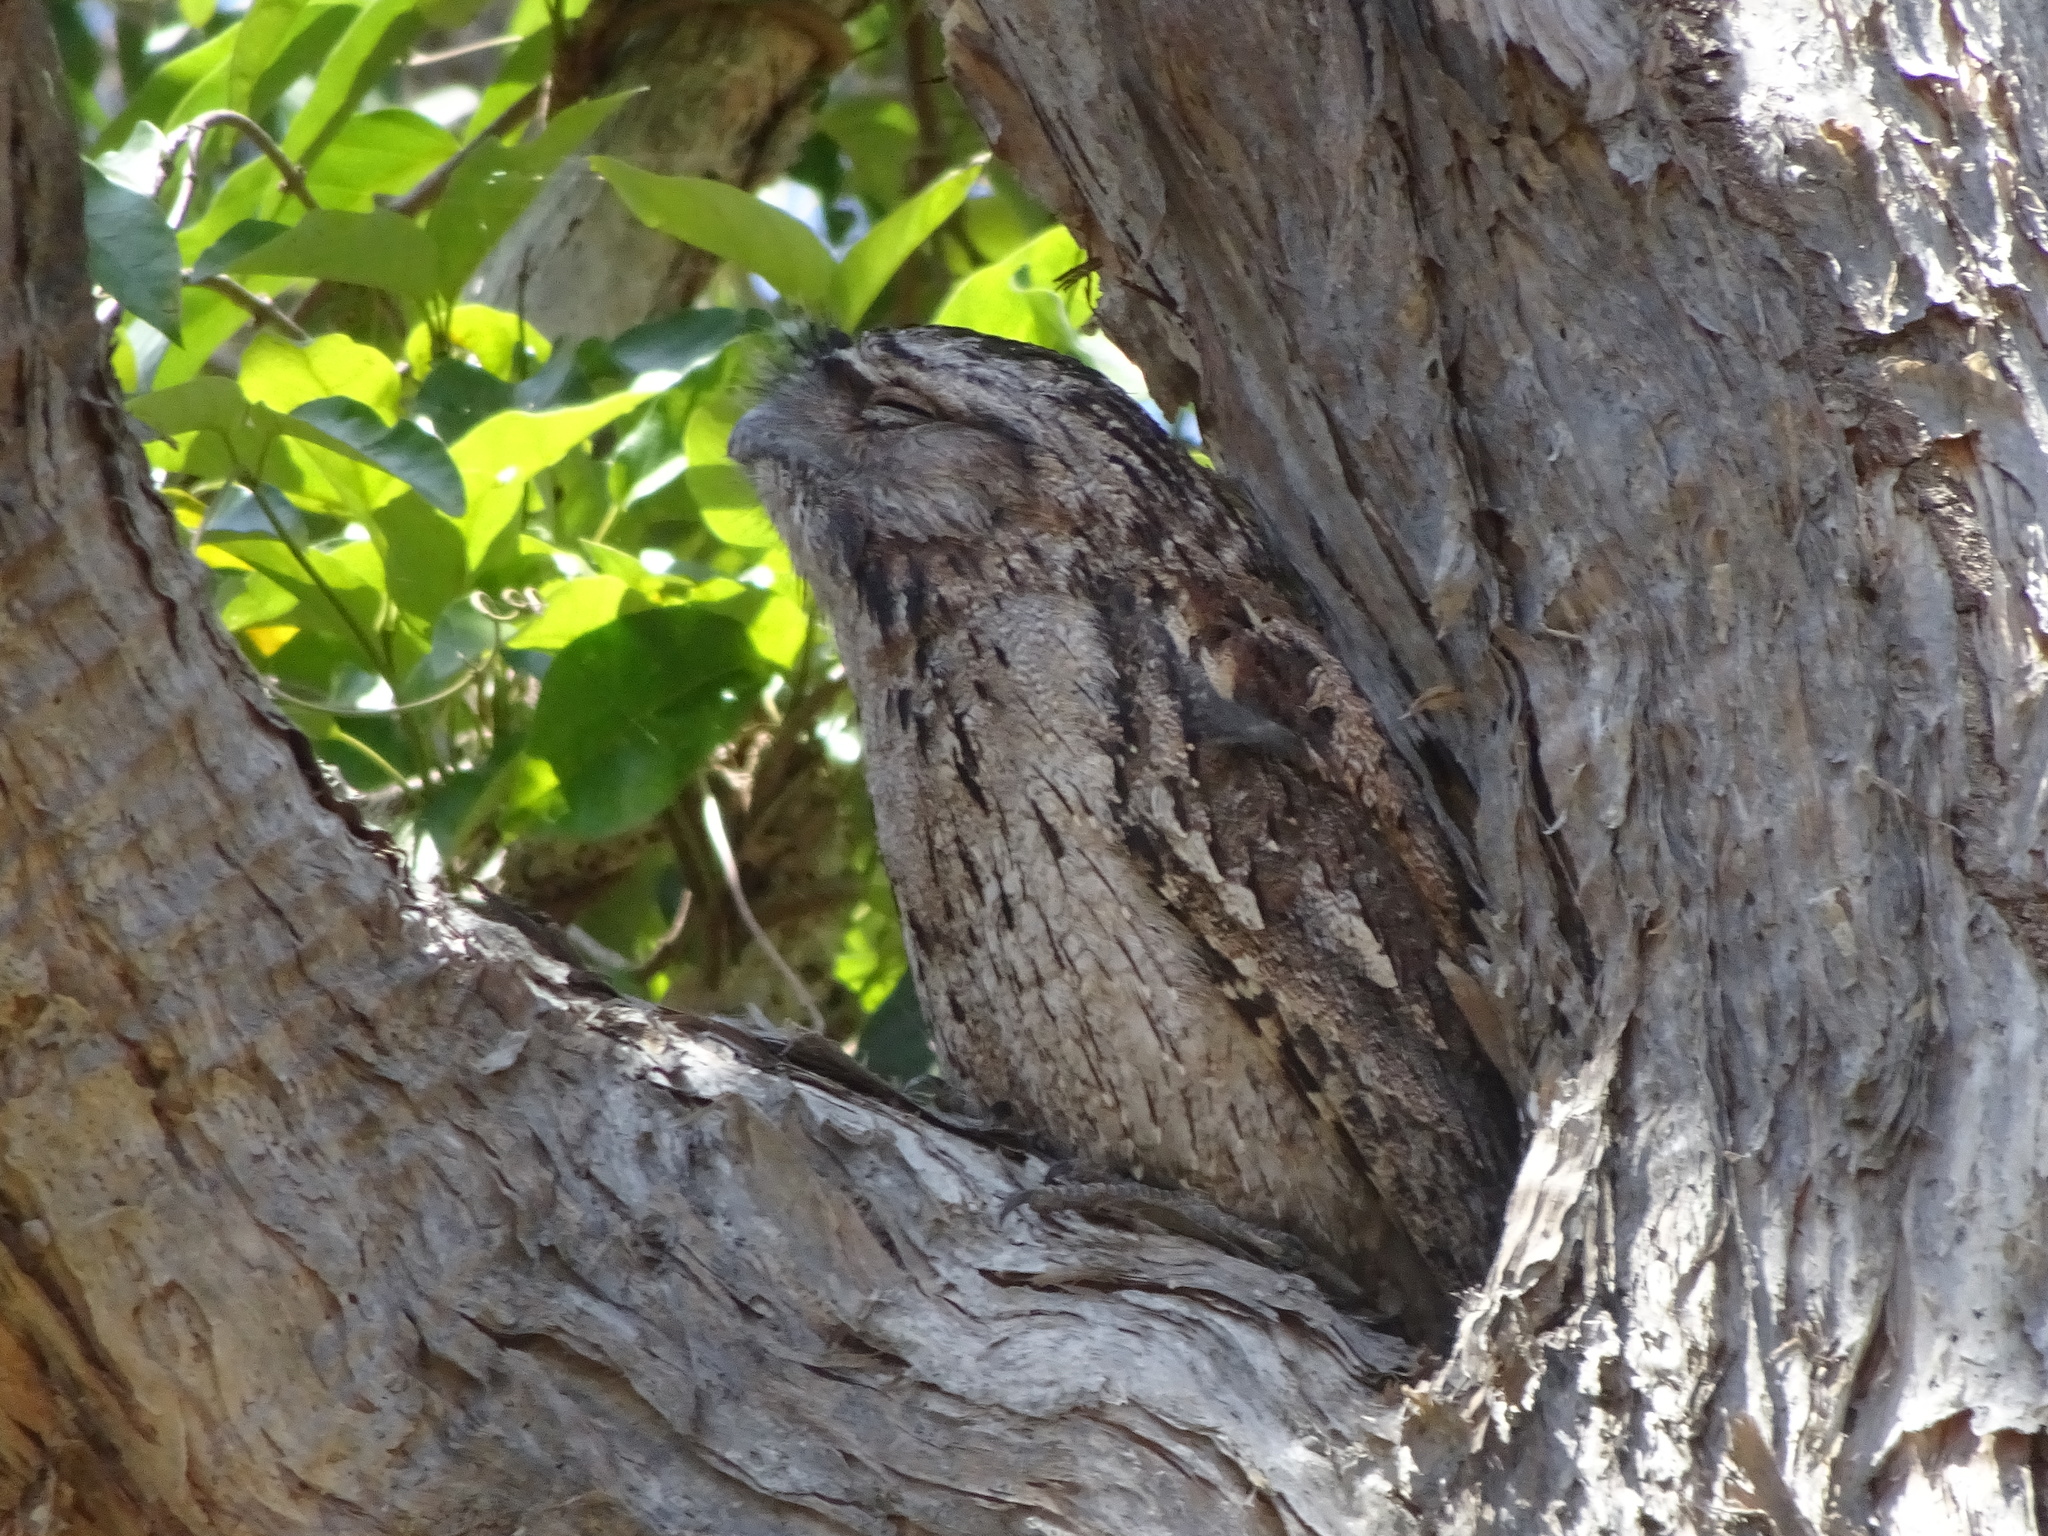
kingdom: Animalia
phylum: Chordata
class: Aves
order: Caprimulgiformes
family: Podargidae
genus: Podargus
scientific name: Podargus strigoides
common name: Tawny frogmouth
